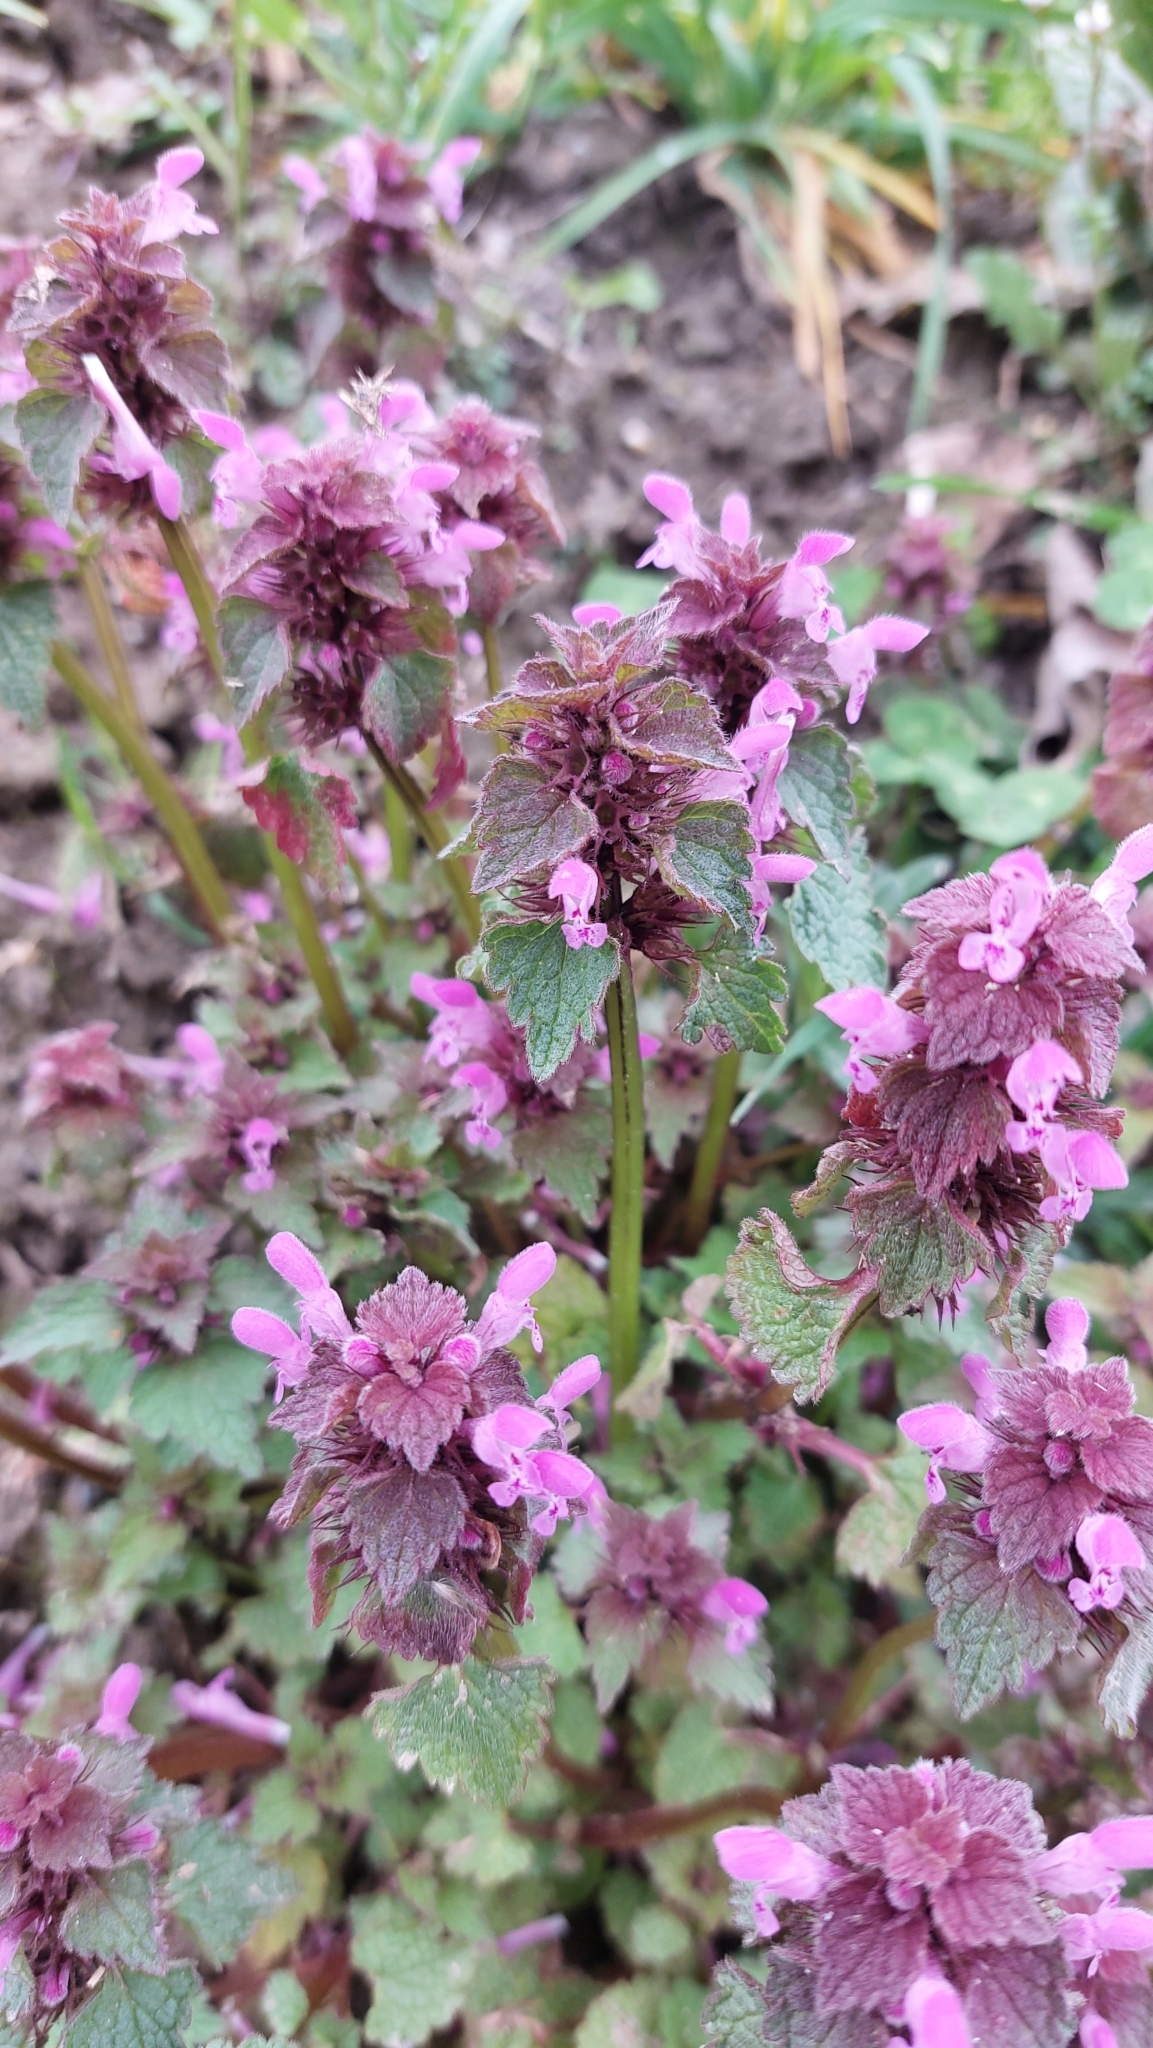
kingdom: Plantae
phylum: Tracheophyta
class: Magnoliopsida
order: Lamiales
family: Lamiaceae
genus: Lamium
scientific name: Lamium purpureum
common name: Red dead-nettle
